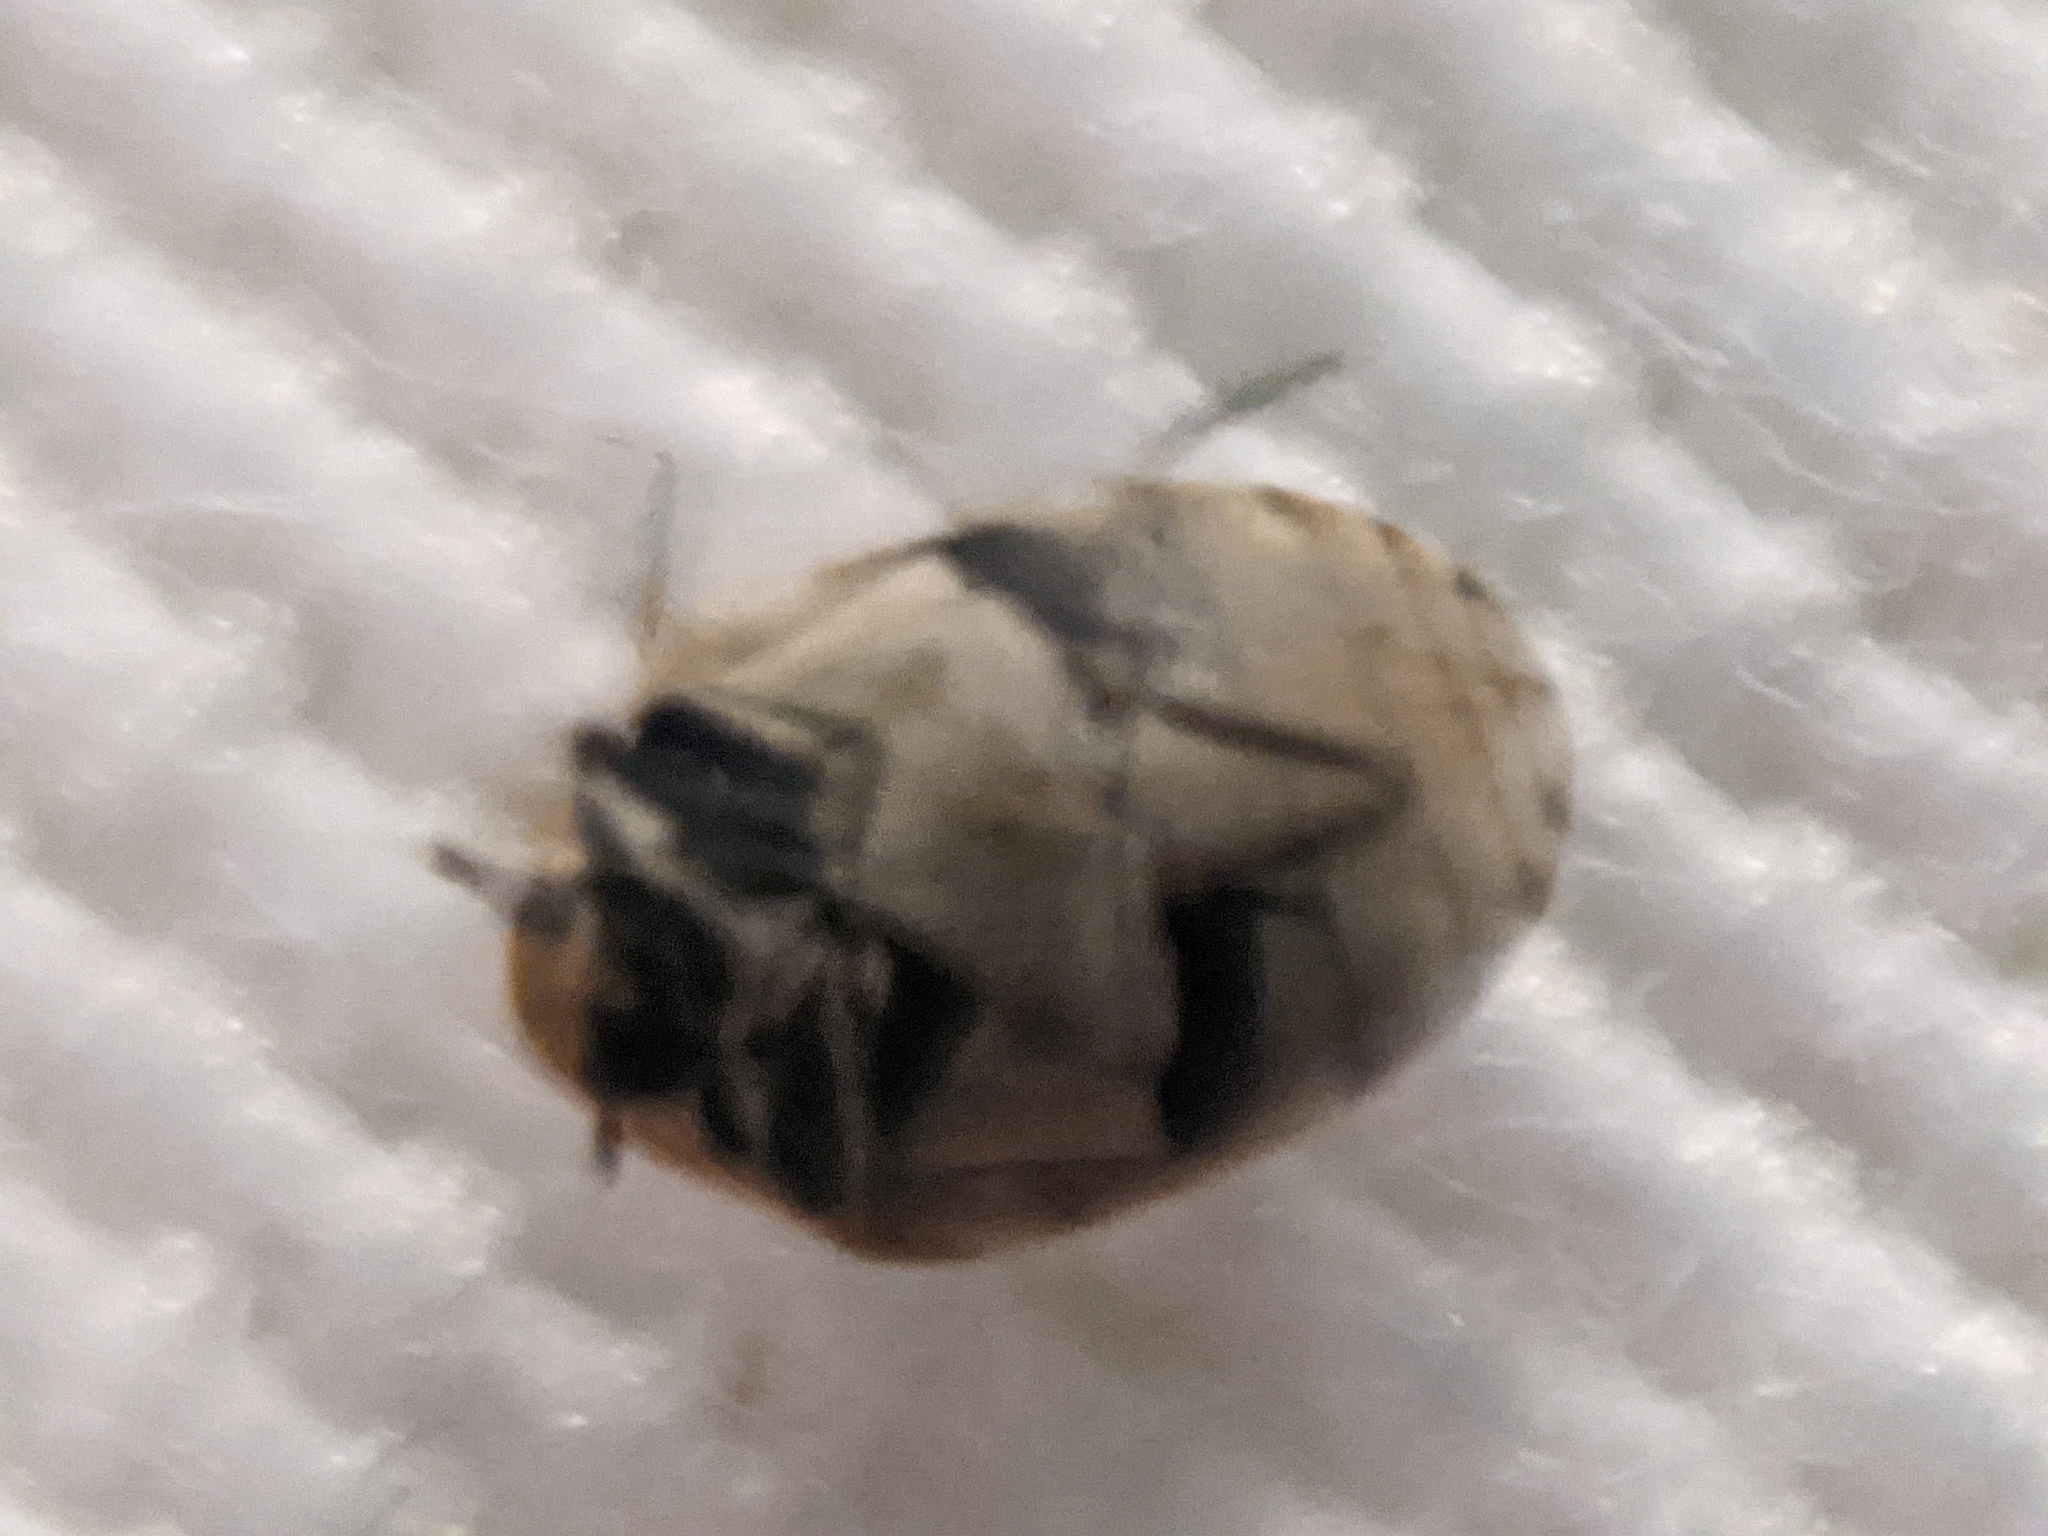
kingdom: Animalia
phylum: Arthropoda
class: Insecta
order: Coleoptera
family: Dermestidae
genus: Anthrenus
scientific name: Anthrenus verbasci
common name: Varied carpet beetle
